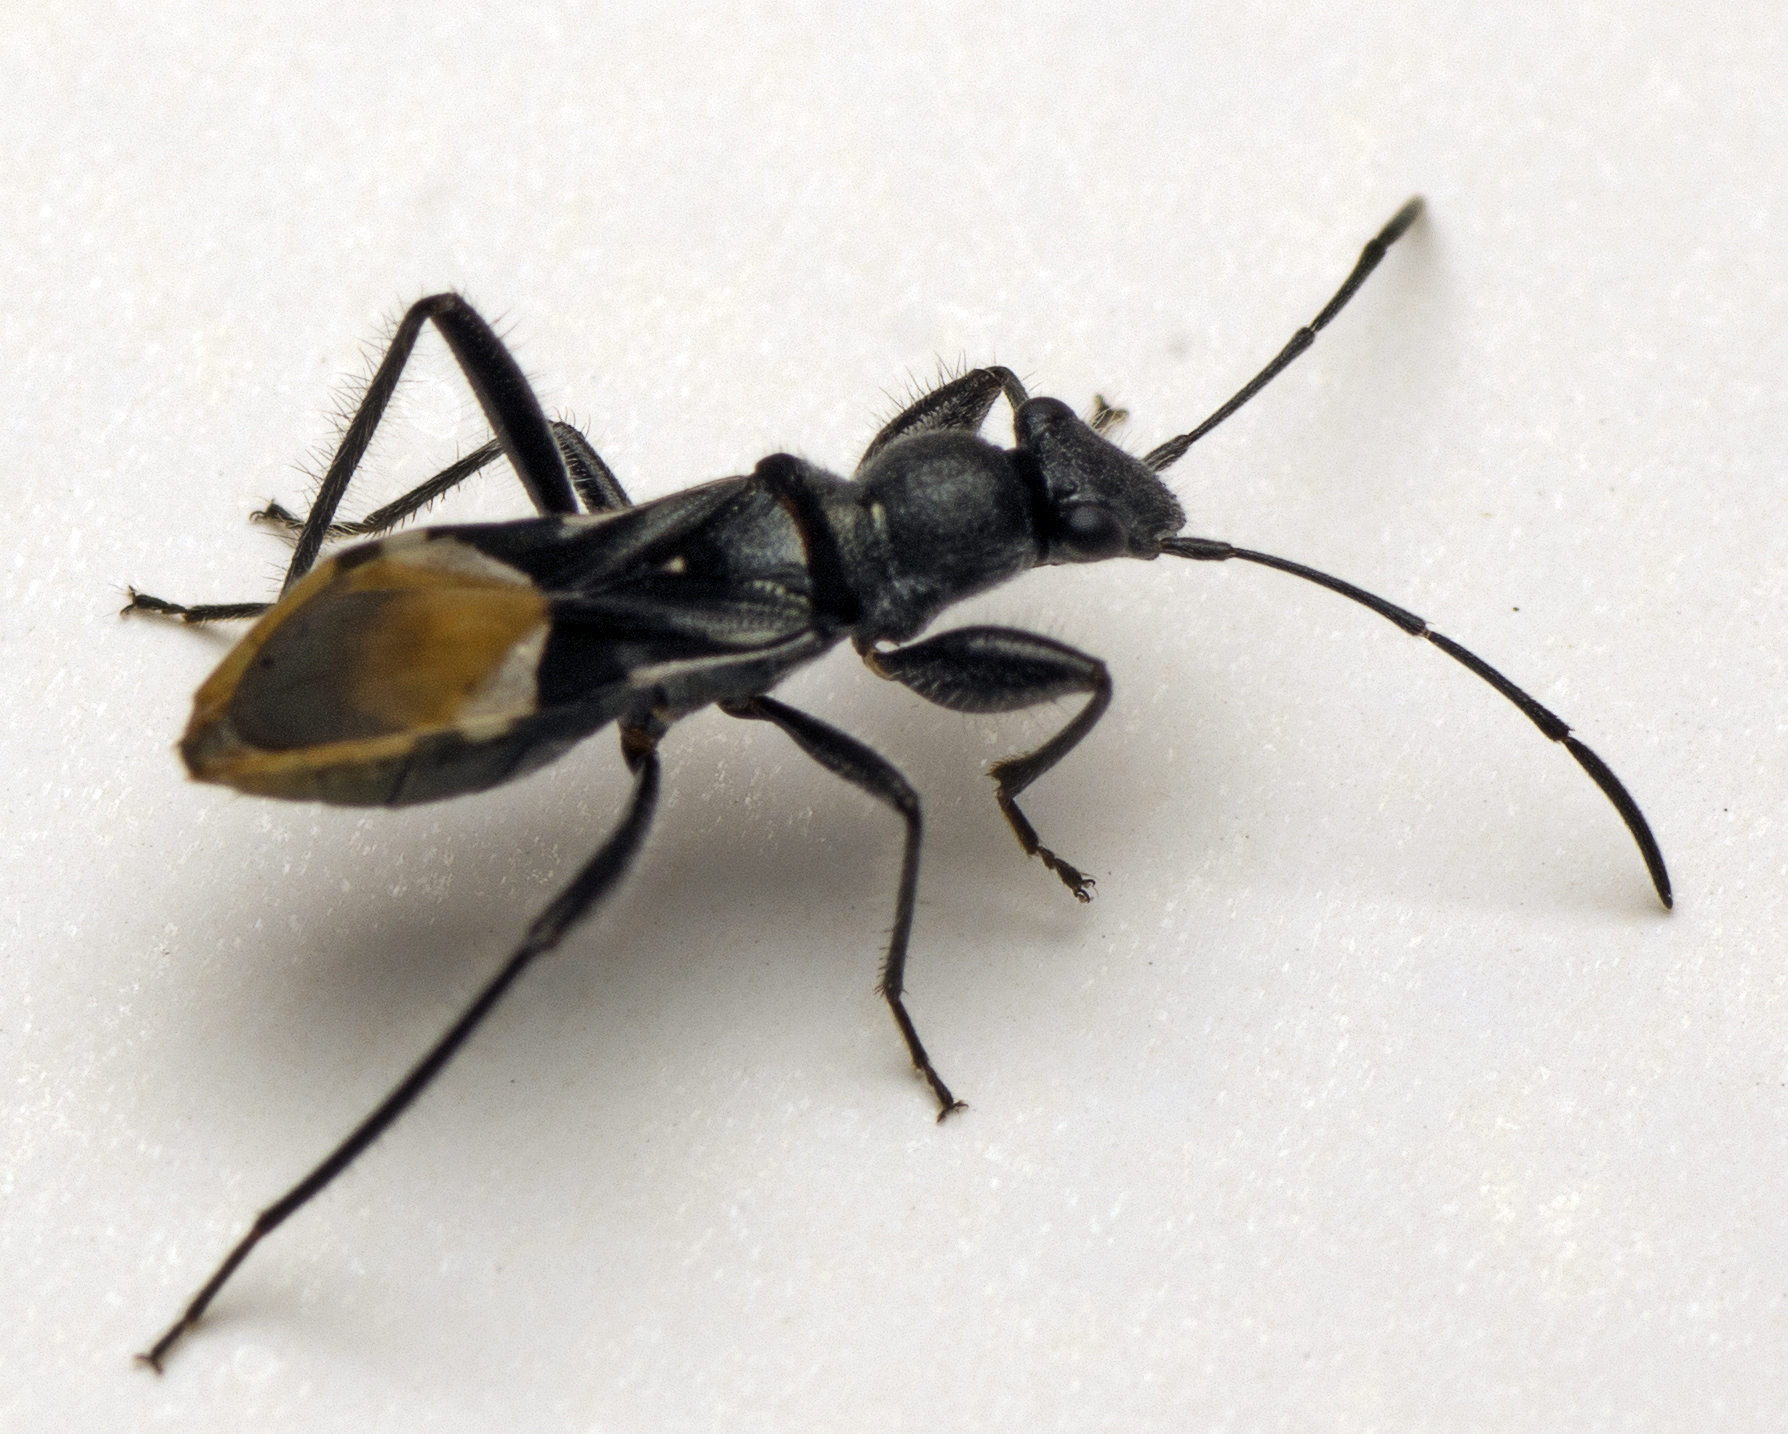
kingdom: Animalia
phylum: Arthropoda
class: Insecta
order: Hemiptera
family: Rhyparochromidae
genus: Daerlac
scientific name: Daerlac nigricans
